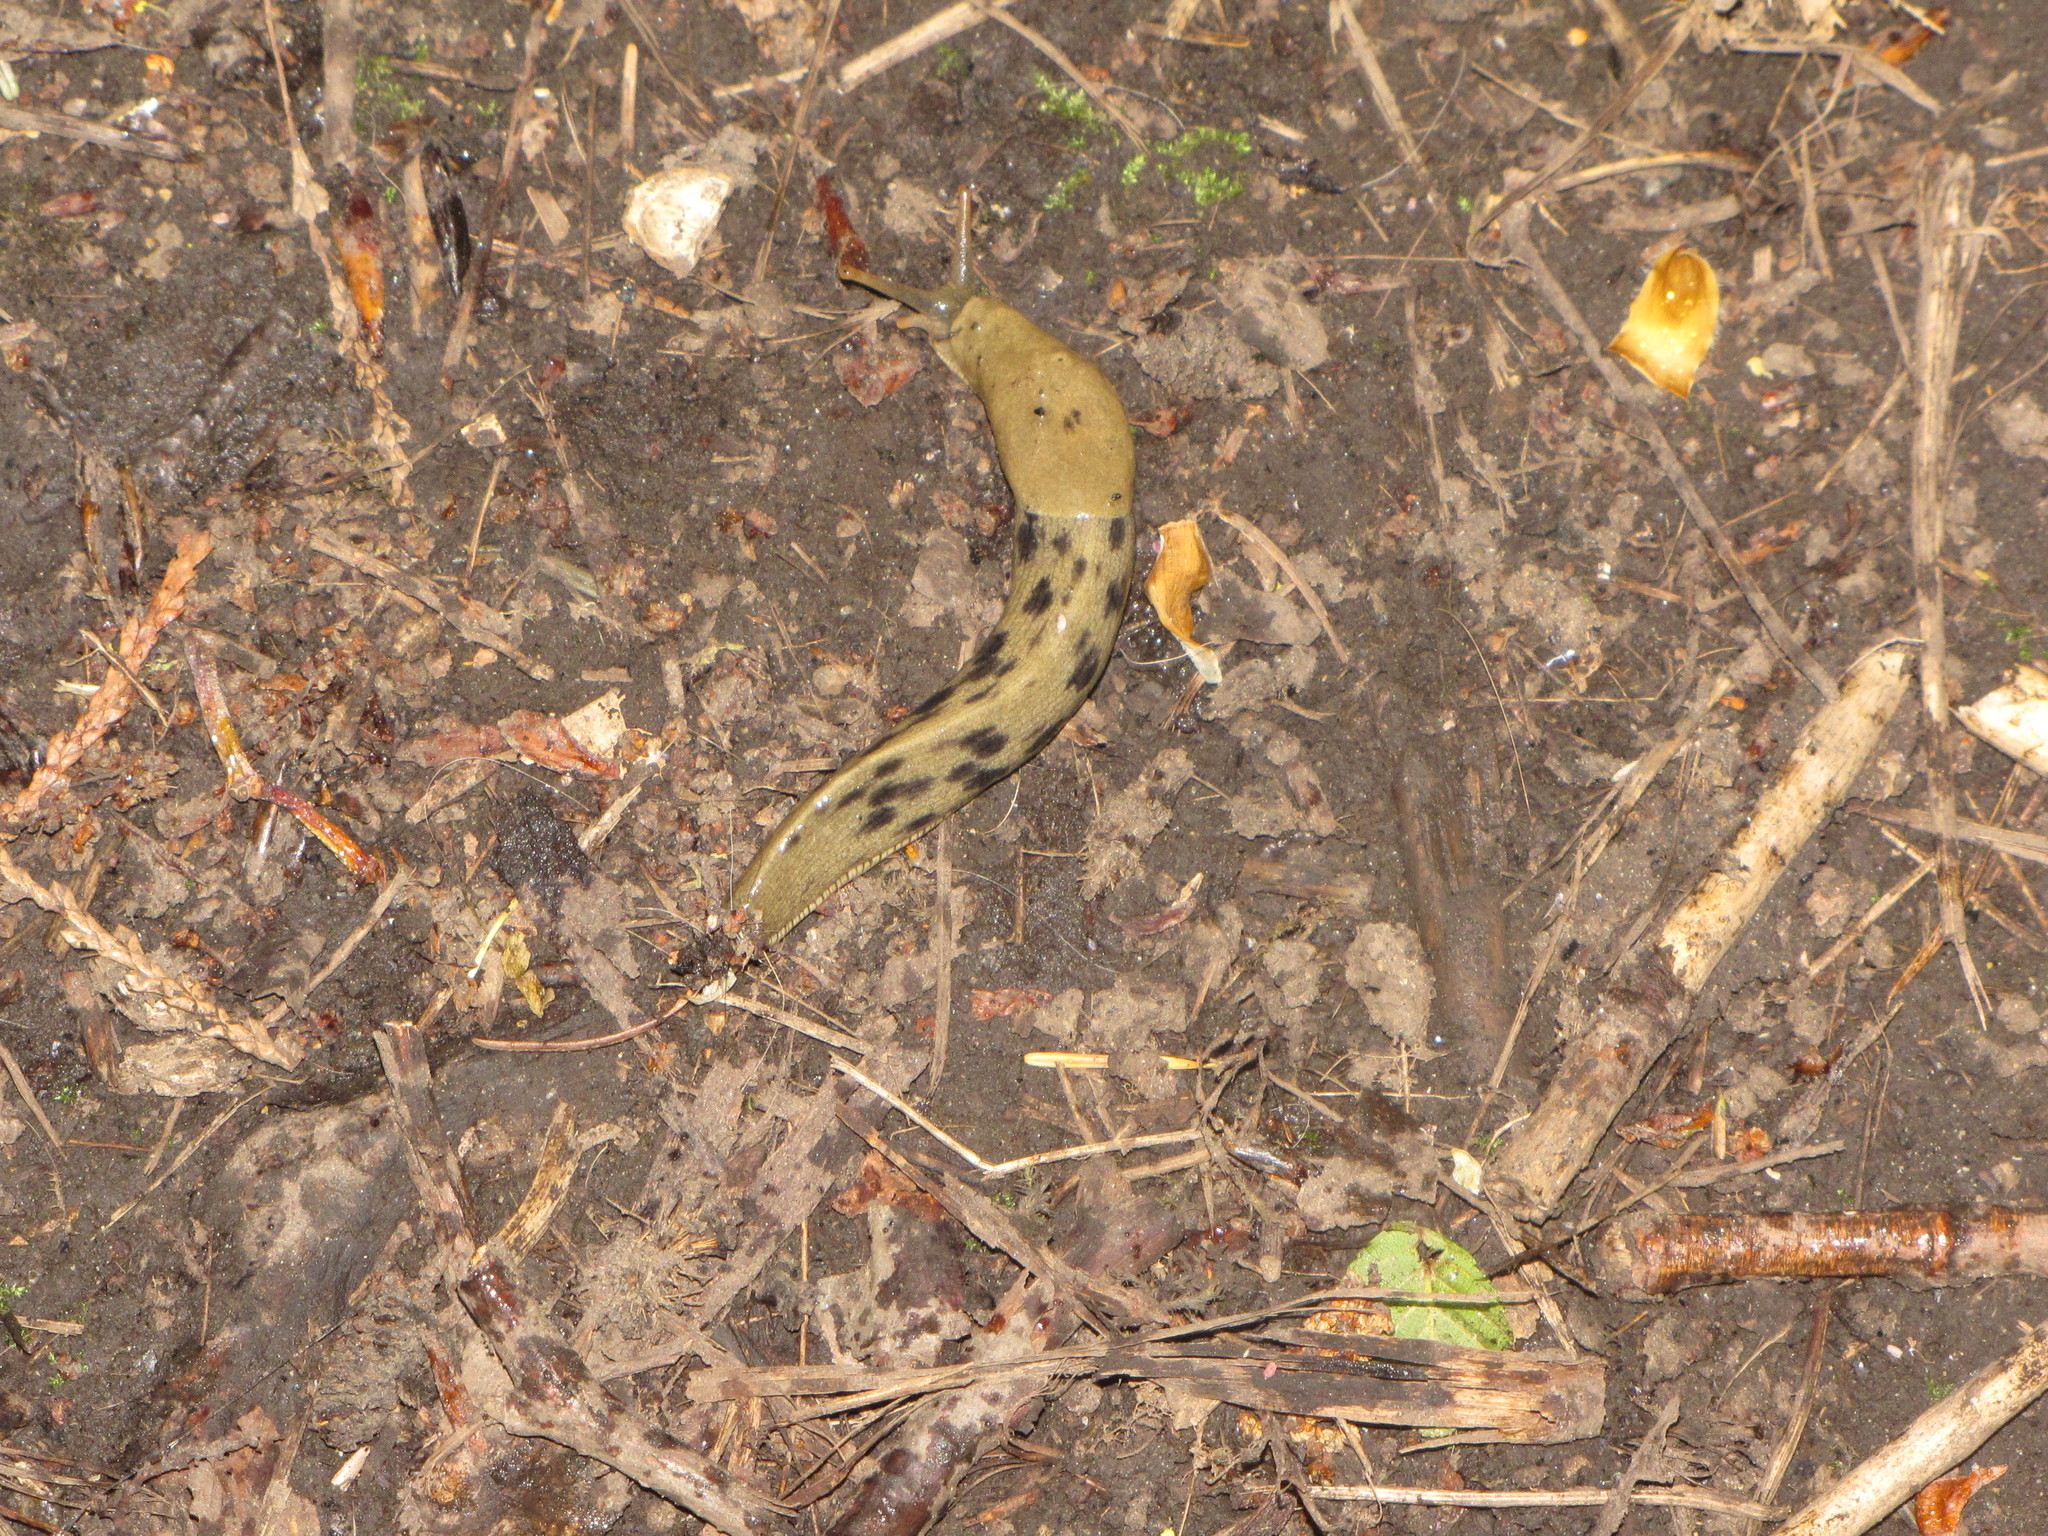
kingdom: Animalia
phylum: Mollusca
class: Gastropoda
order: Stylommatophora
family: Ariolimacidae
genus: Ariolimax
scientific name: Ariolimax columbianus
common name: Pacific banana slug
